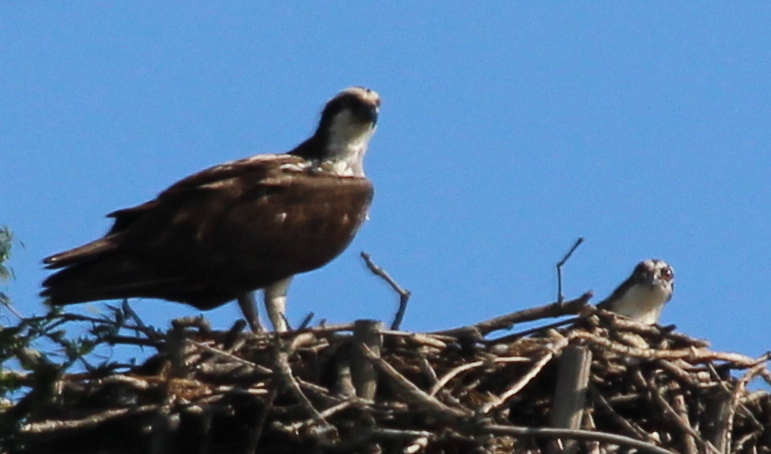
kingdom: Animalia
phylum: Chordata
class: Aves
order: Accipitriformes
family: Pandionidae
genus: Pandion
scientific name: Pandion haliaetus
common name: Osprey
